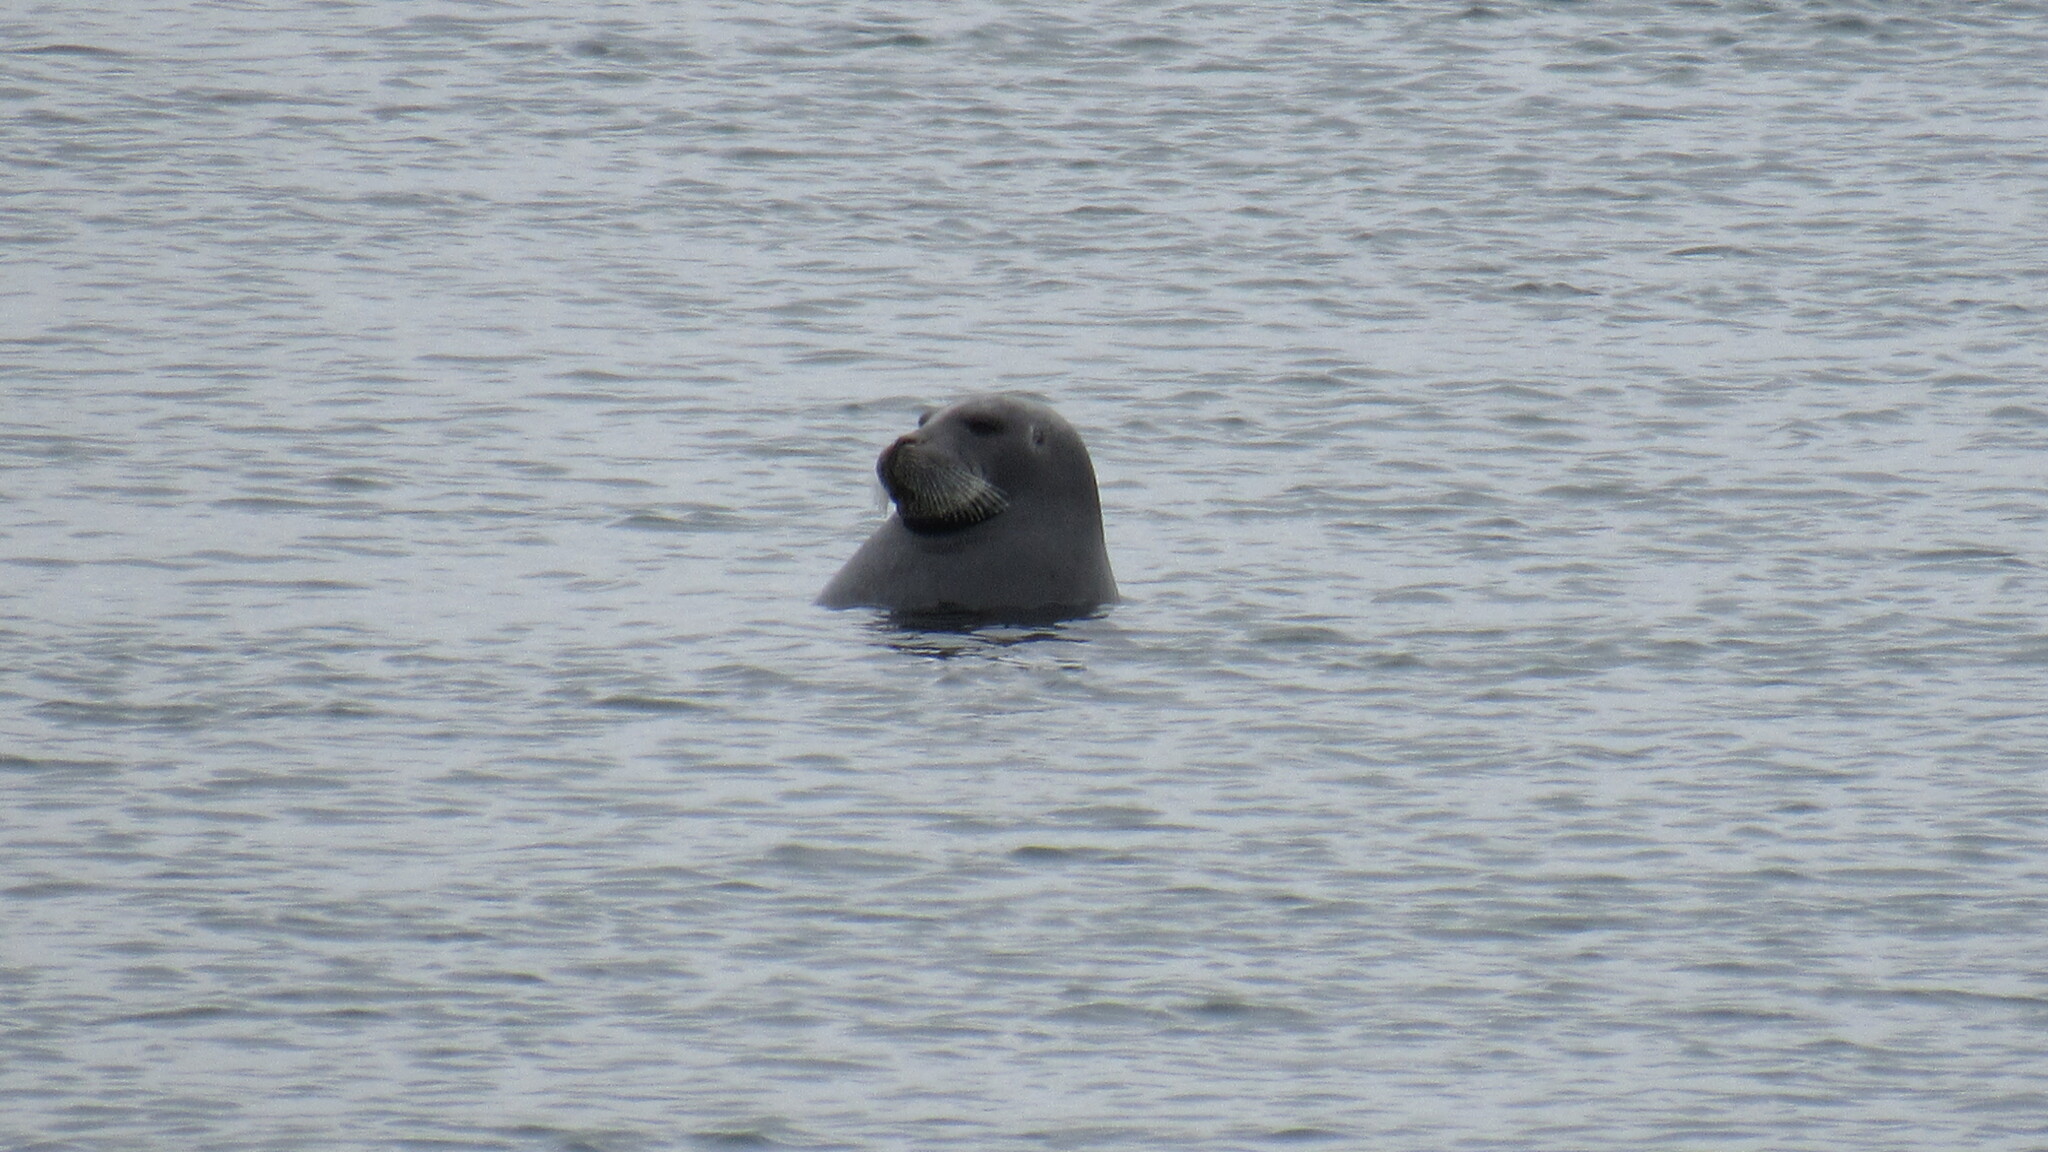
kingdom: Animalia
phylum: Chordata
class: Mammalia
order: Carnivora
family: Phocidae
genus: Erignathus
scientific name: Erignathus barbatus
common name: Bearded seal
